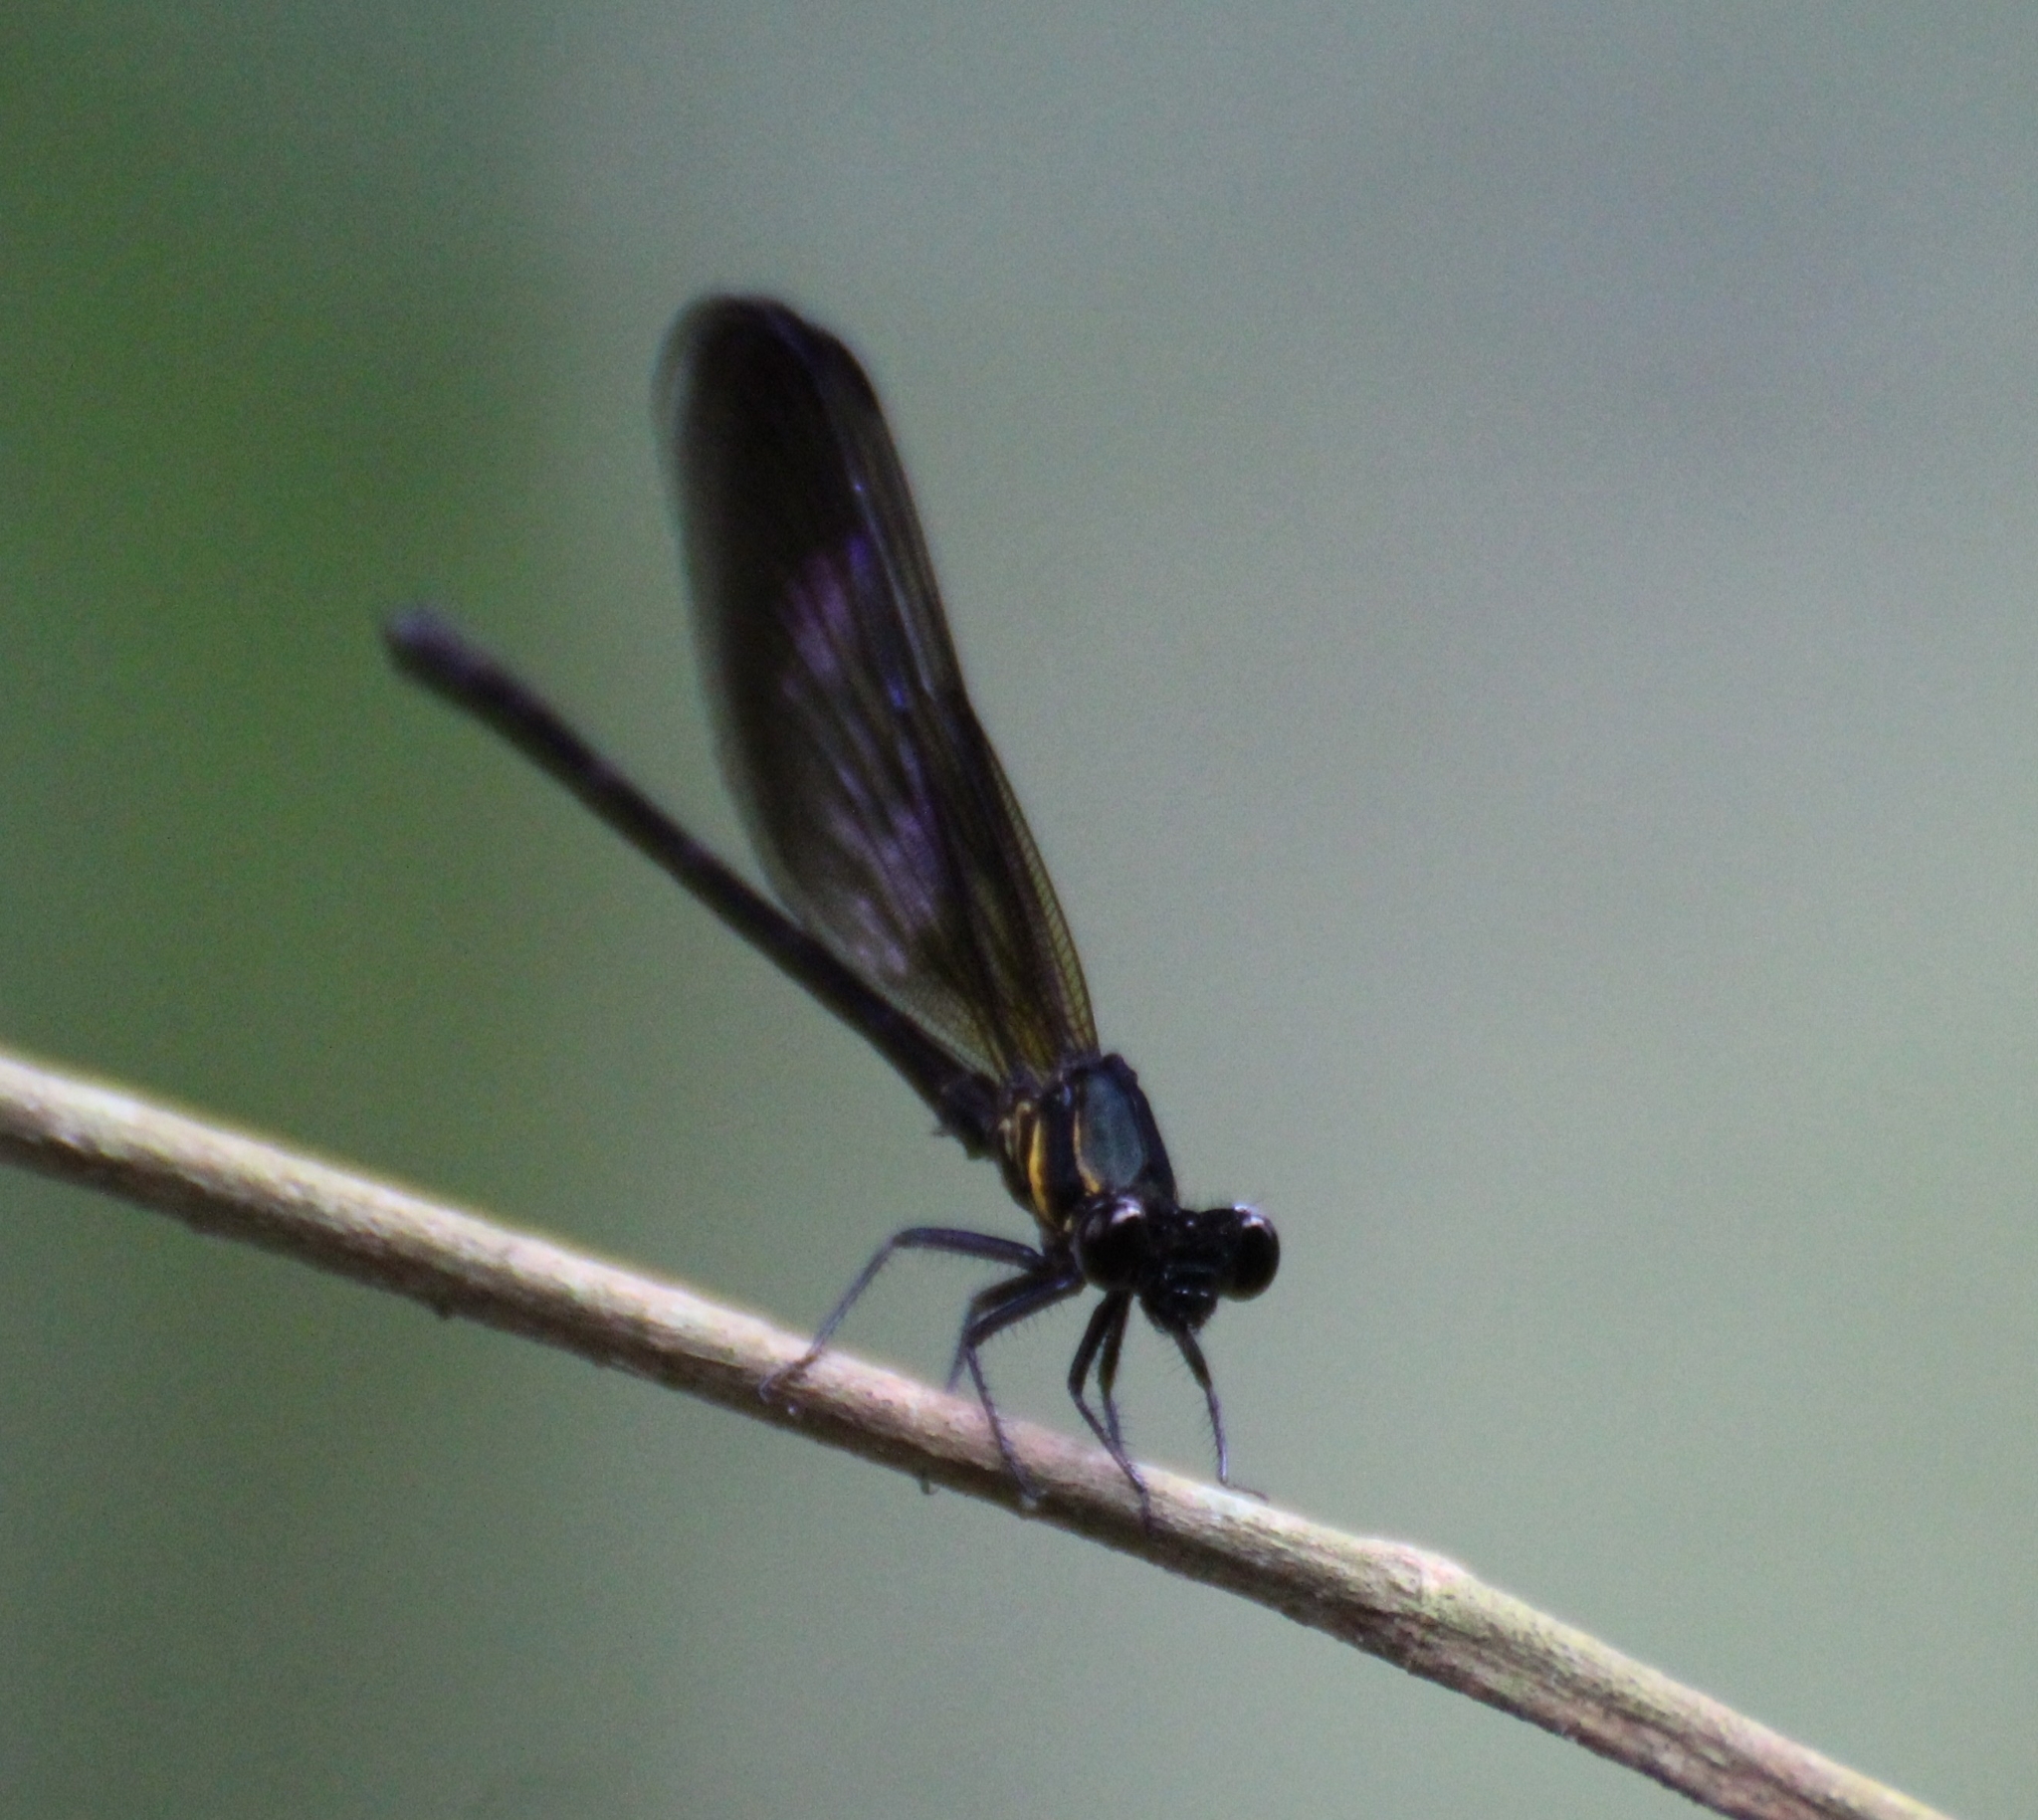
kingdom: Animalia
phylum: Arthropoda
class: Insecta
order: Odonata
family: Euphaeidae
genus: Euphaea
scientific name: Euphaea variegata
